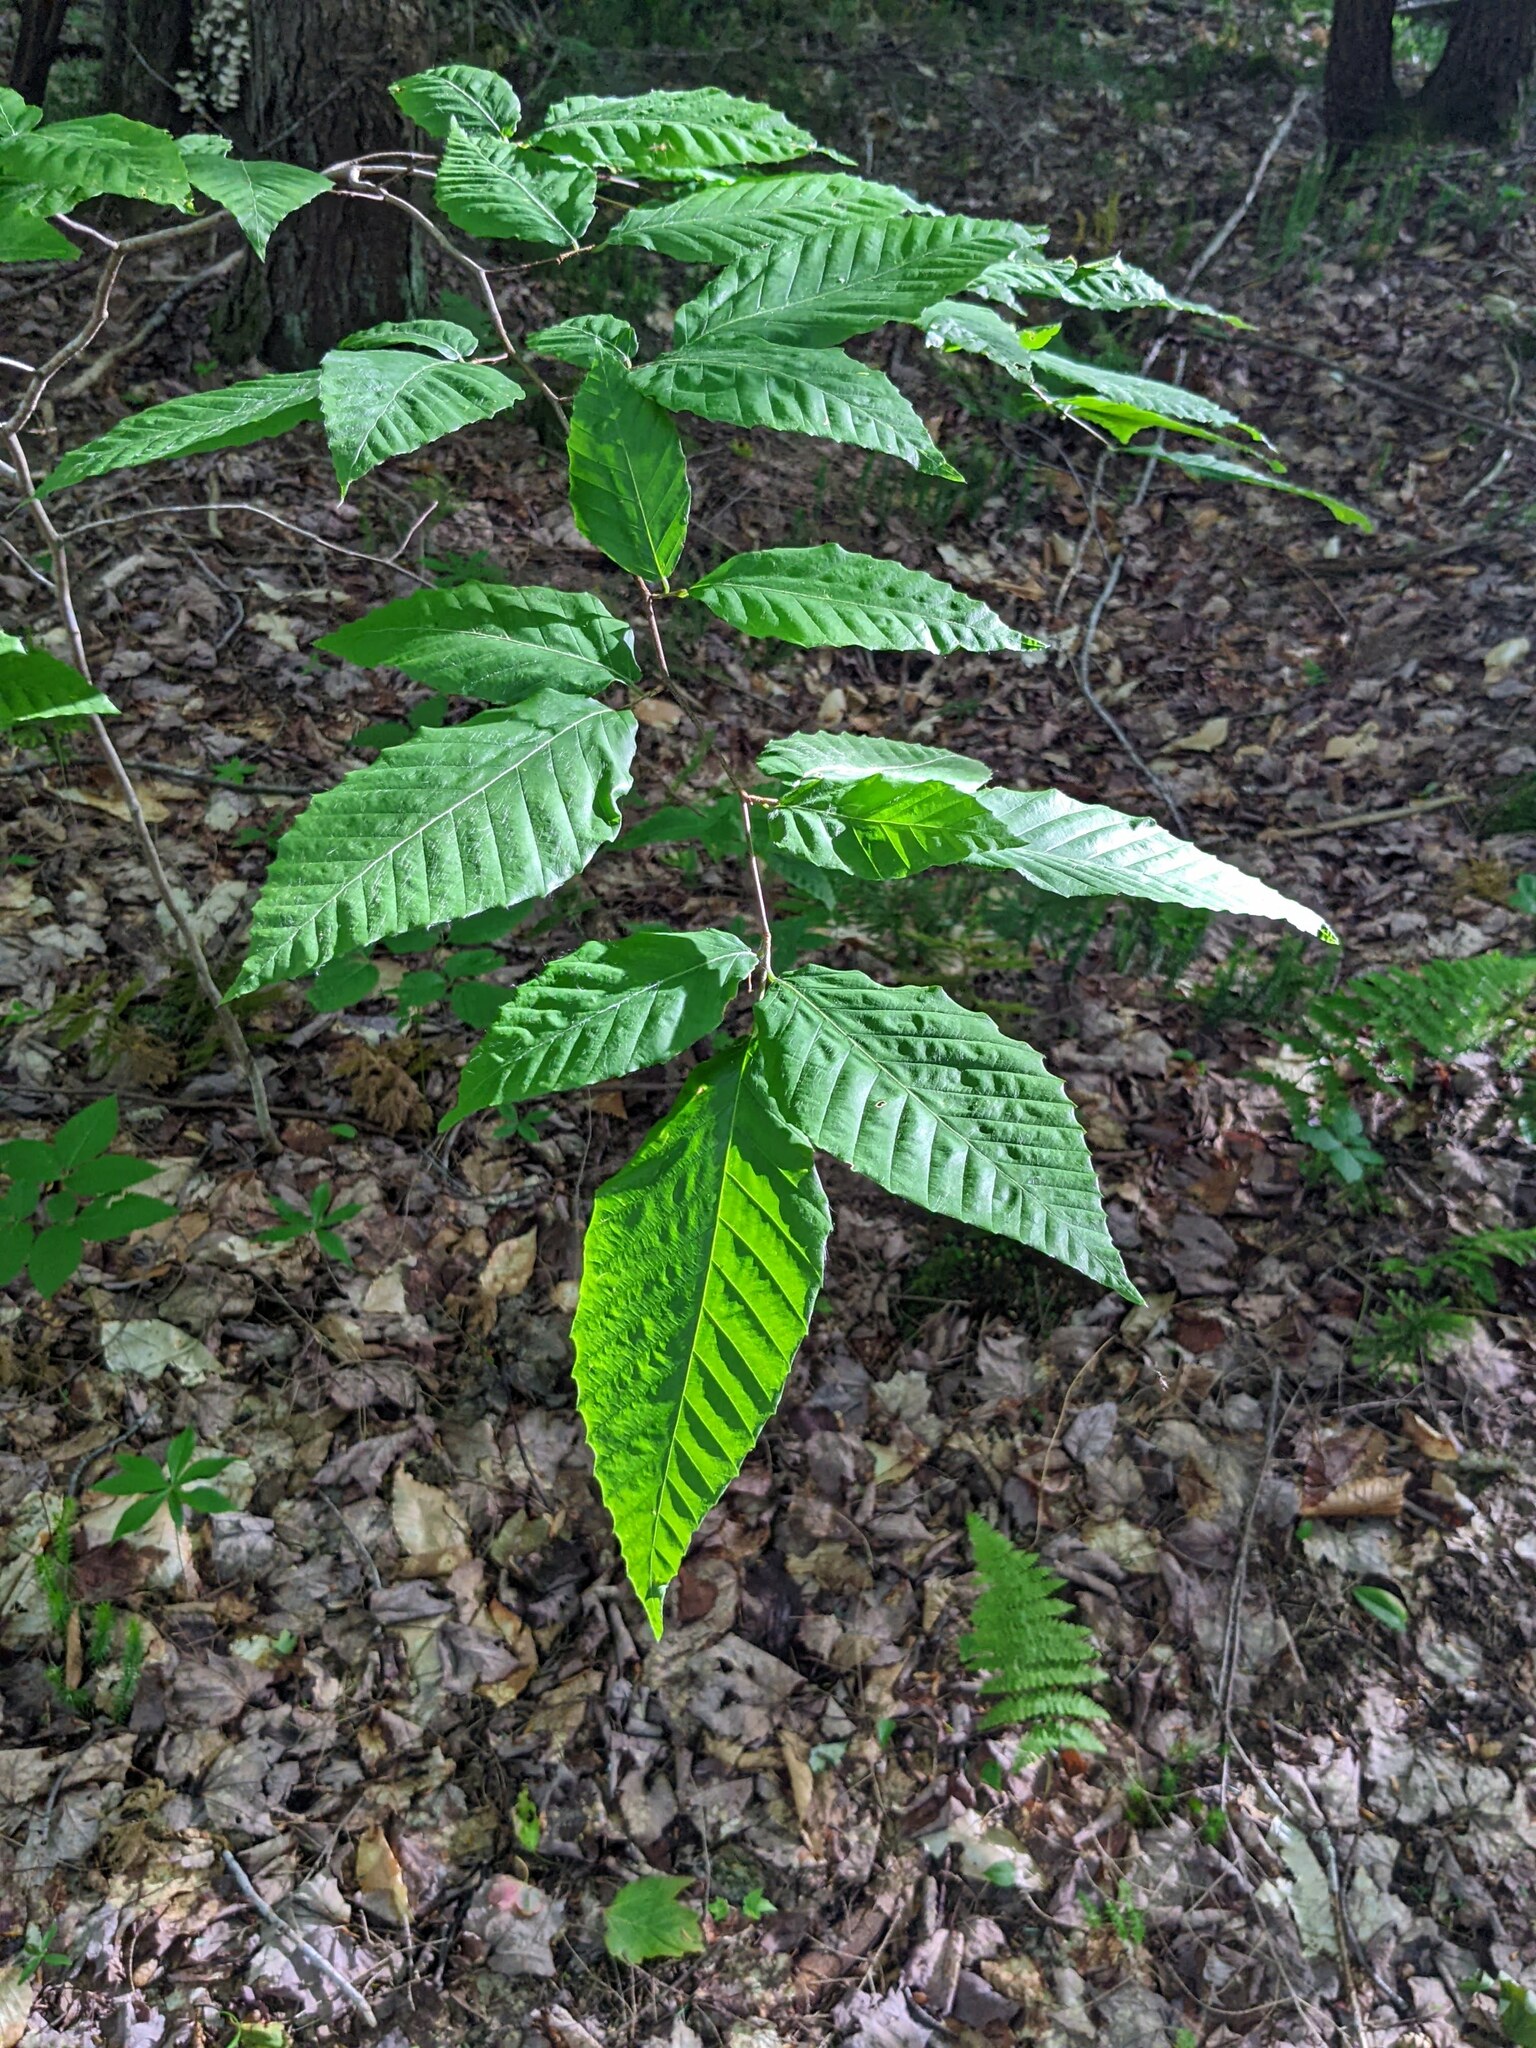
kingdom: Plantae
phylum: Tracheophyta
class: Magnoliopsida
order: Fagales
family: Fagaceae
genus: Fagus
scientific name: Fagus grandifolia
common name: American beech
